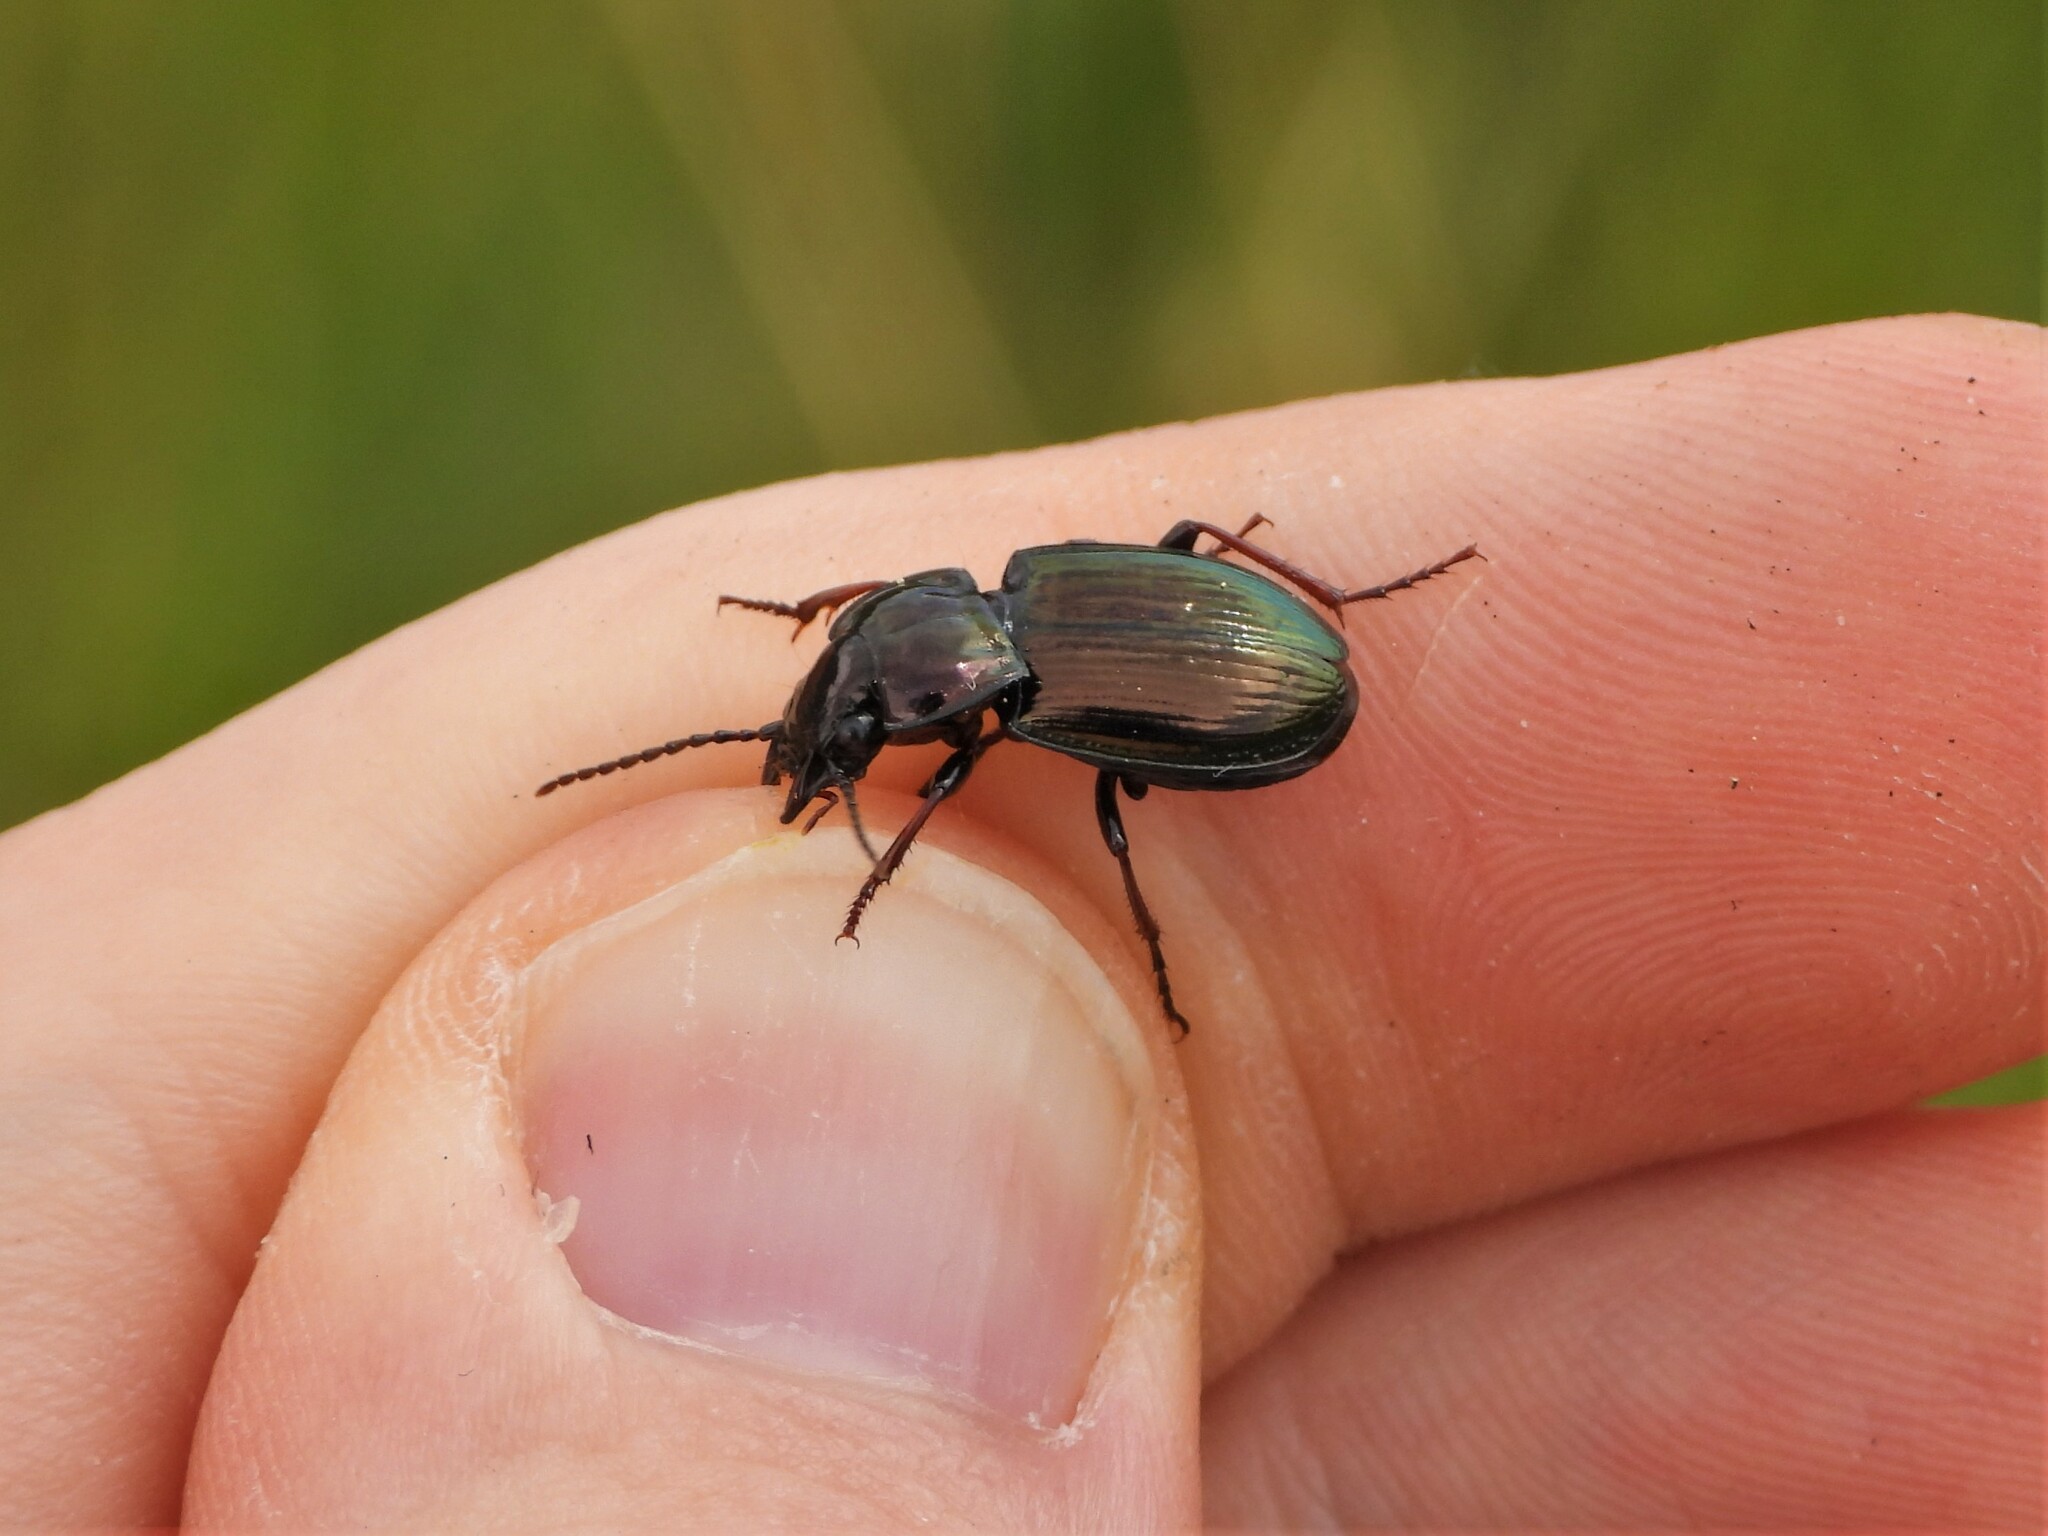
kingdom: Animalia
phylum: Arthropoda
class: Insecta
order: Coleoptera
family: Carabidae
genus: Pterostichus
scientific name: Pterostichus burmeisteri
